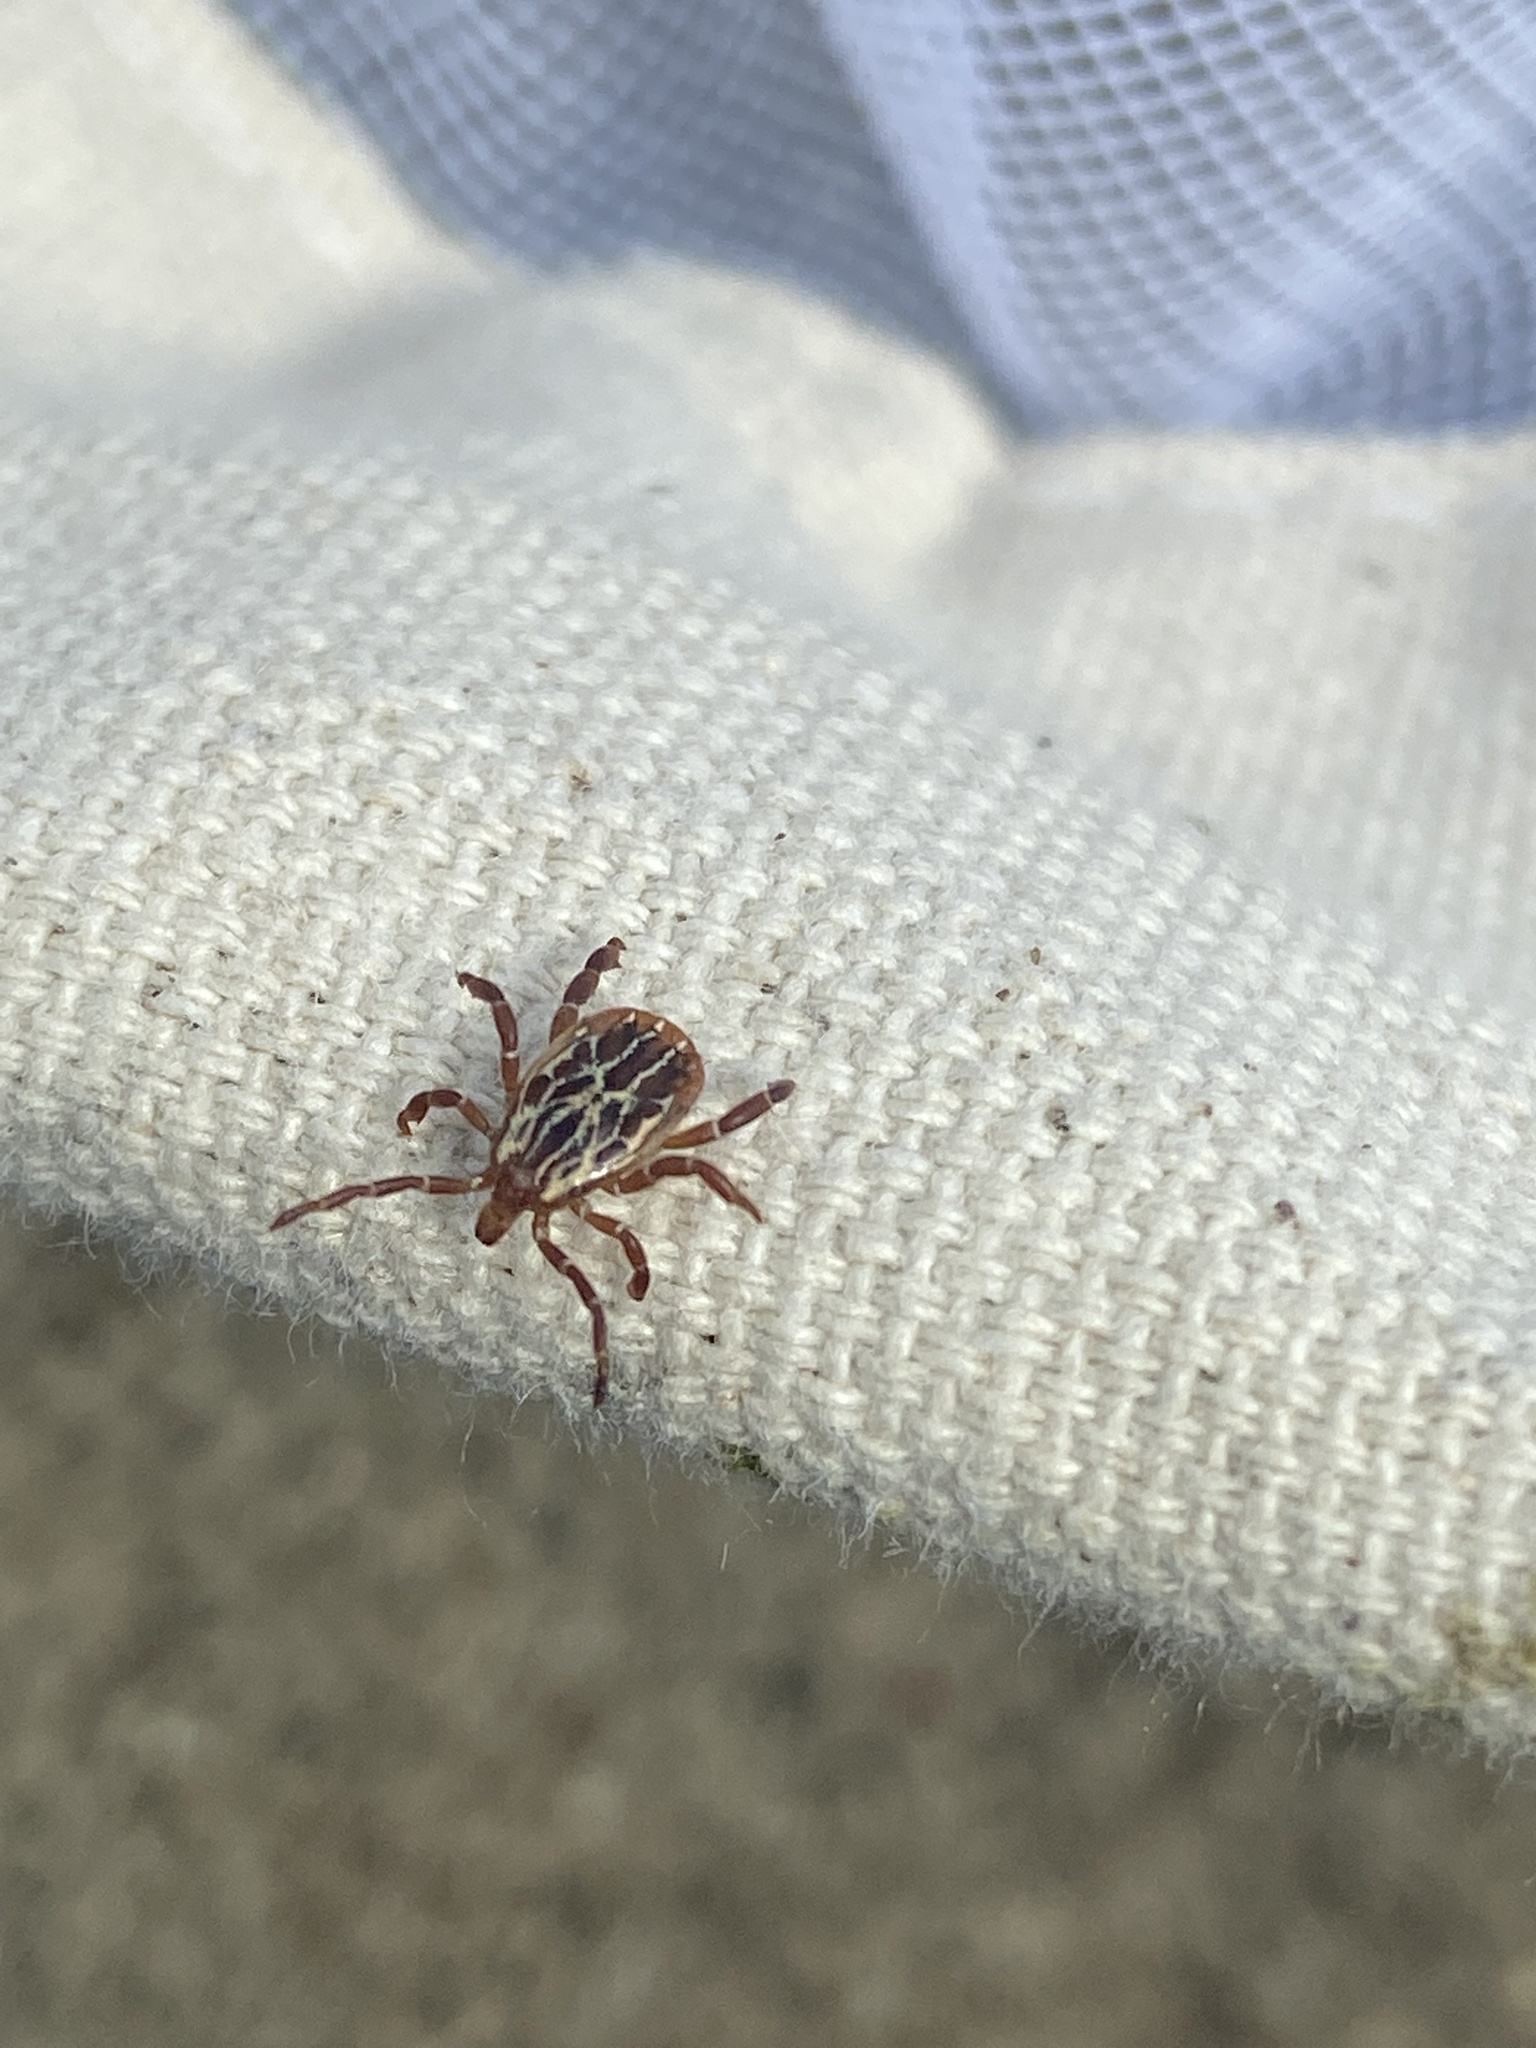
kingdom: Animalia
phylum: Arthropoda
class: Arachnida
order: Ixodida
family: Ixodidae
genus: Amblyomma
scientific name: Amblyomma maculatum
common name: Gulf coast tick
